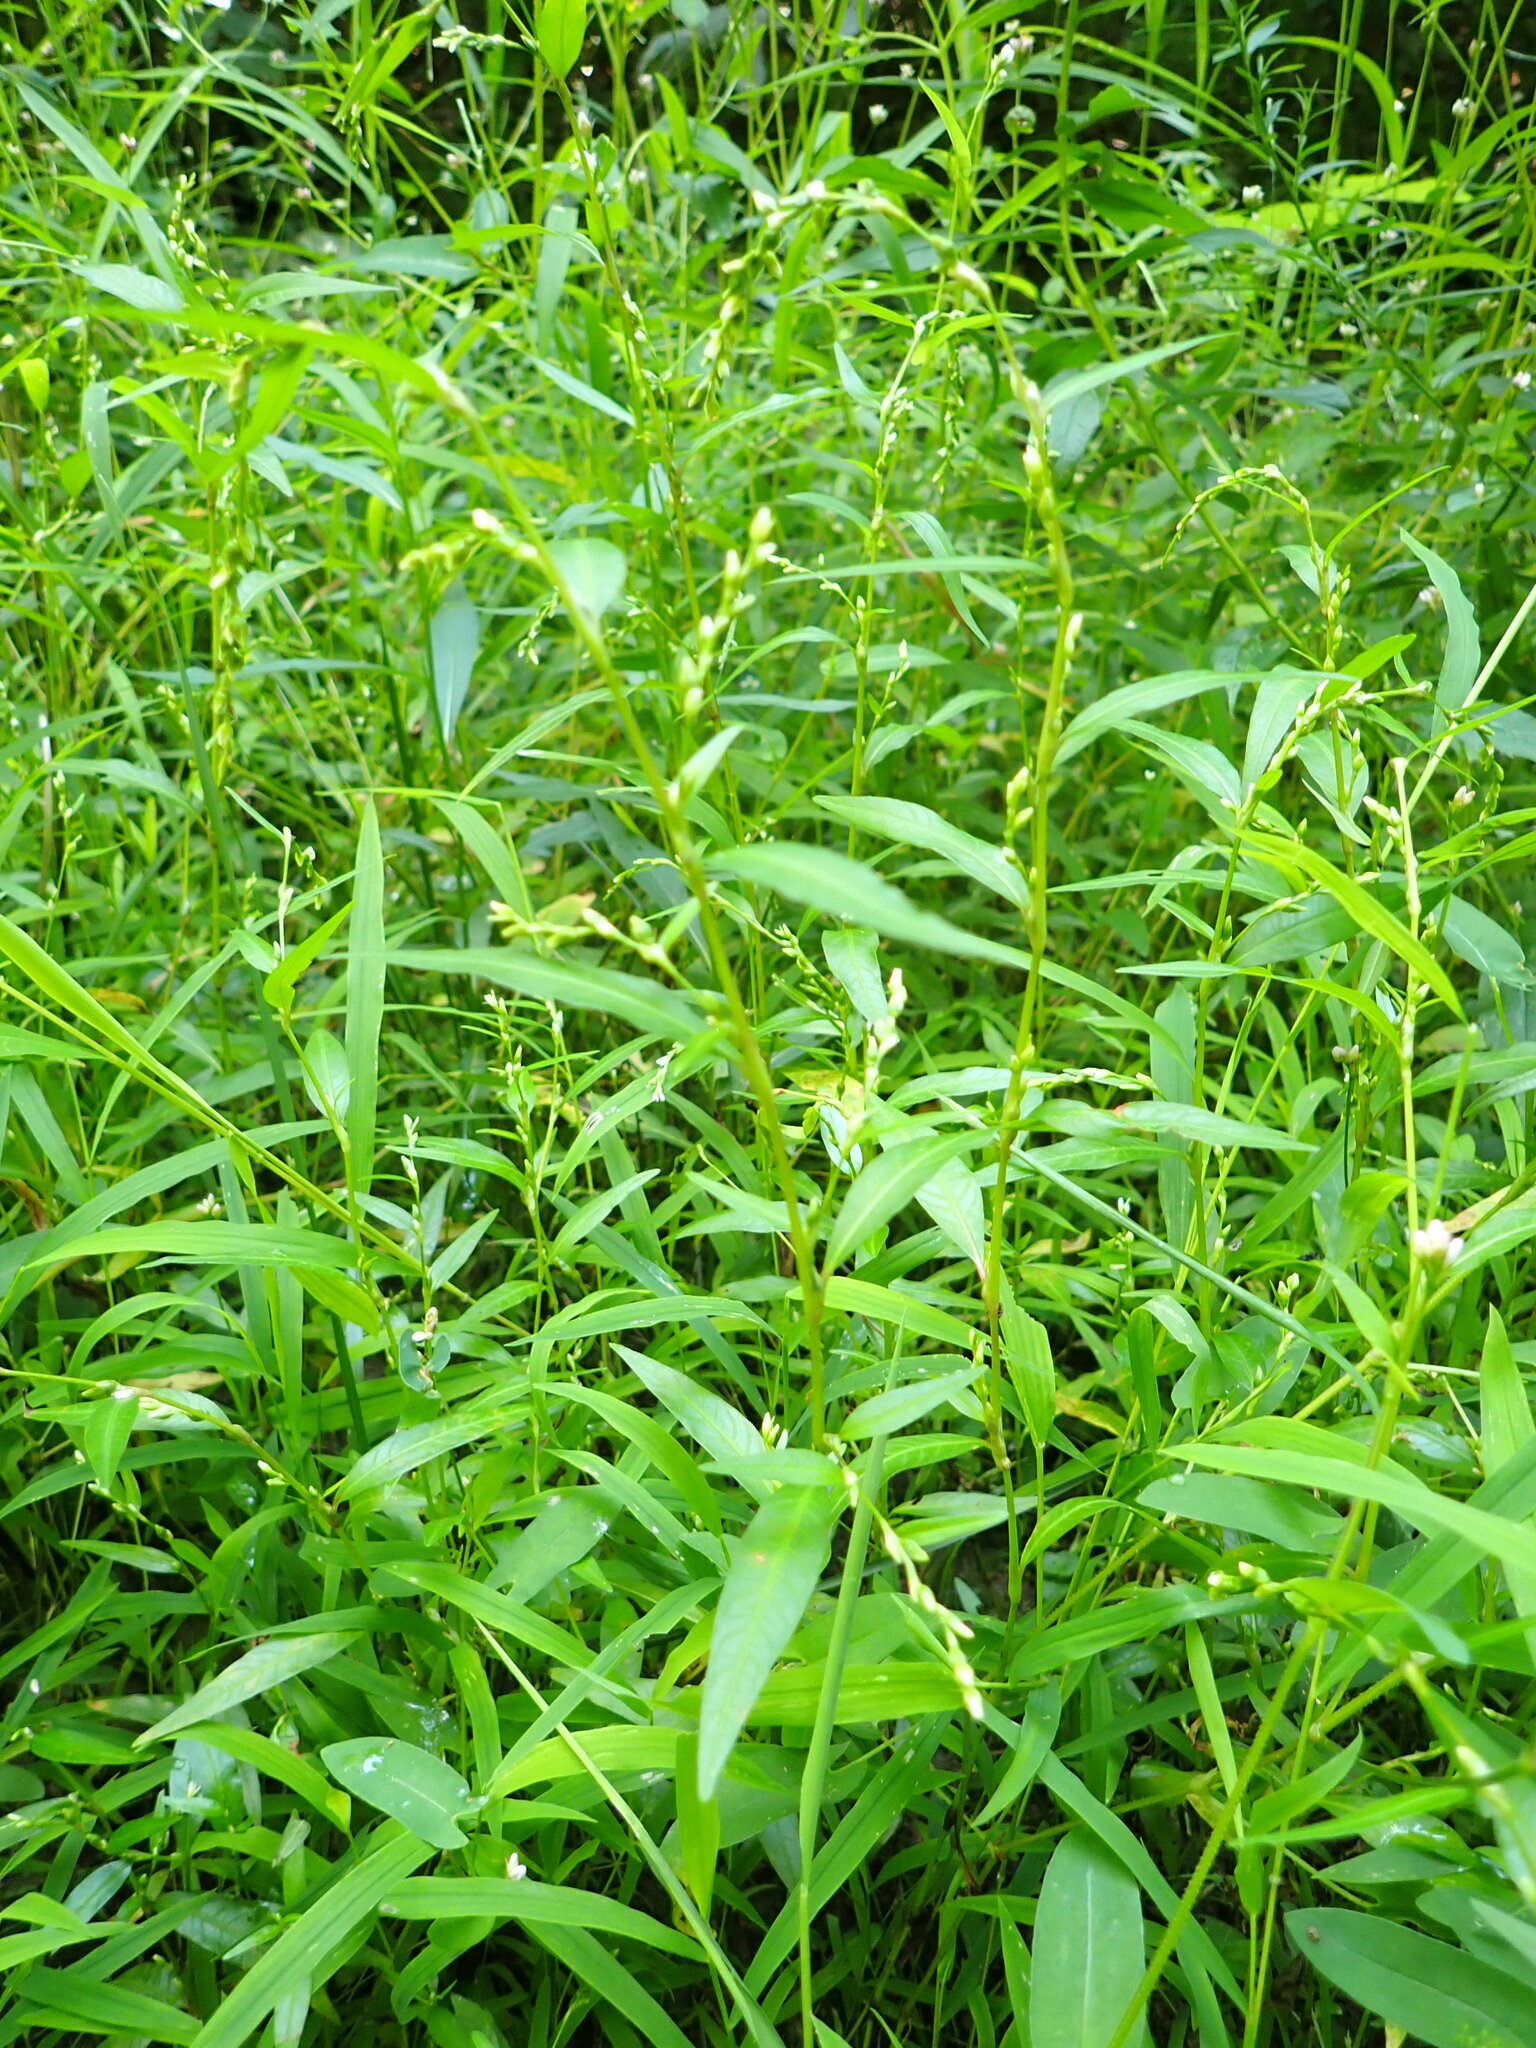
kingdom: Plantae
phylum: Tracheophyta
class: Magnoliopsida
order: Caryophyllales
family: Polygonaceae
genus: Persicaria
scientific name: Persicaria hydropiper
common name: Water-pepper
